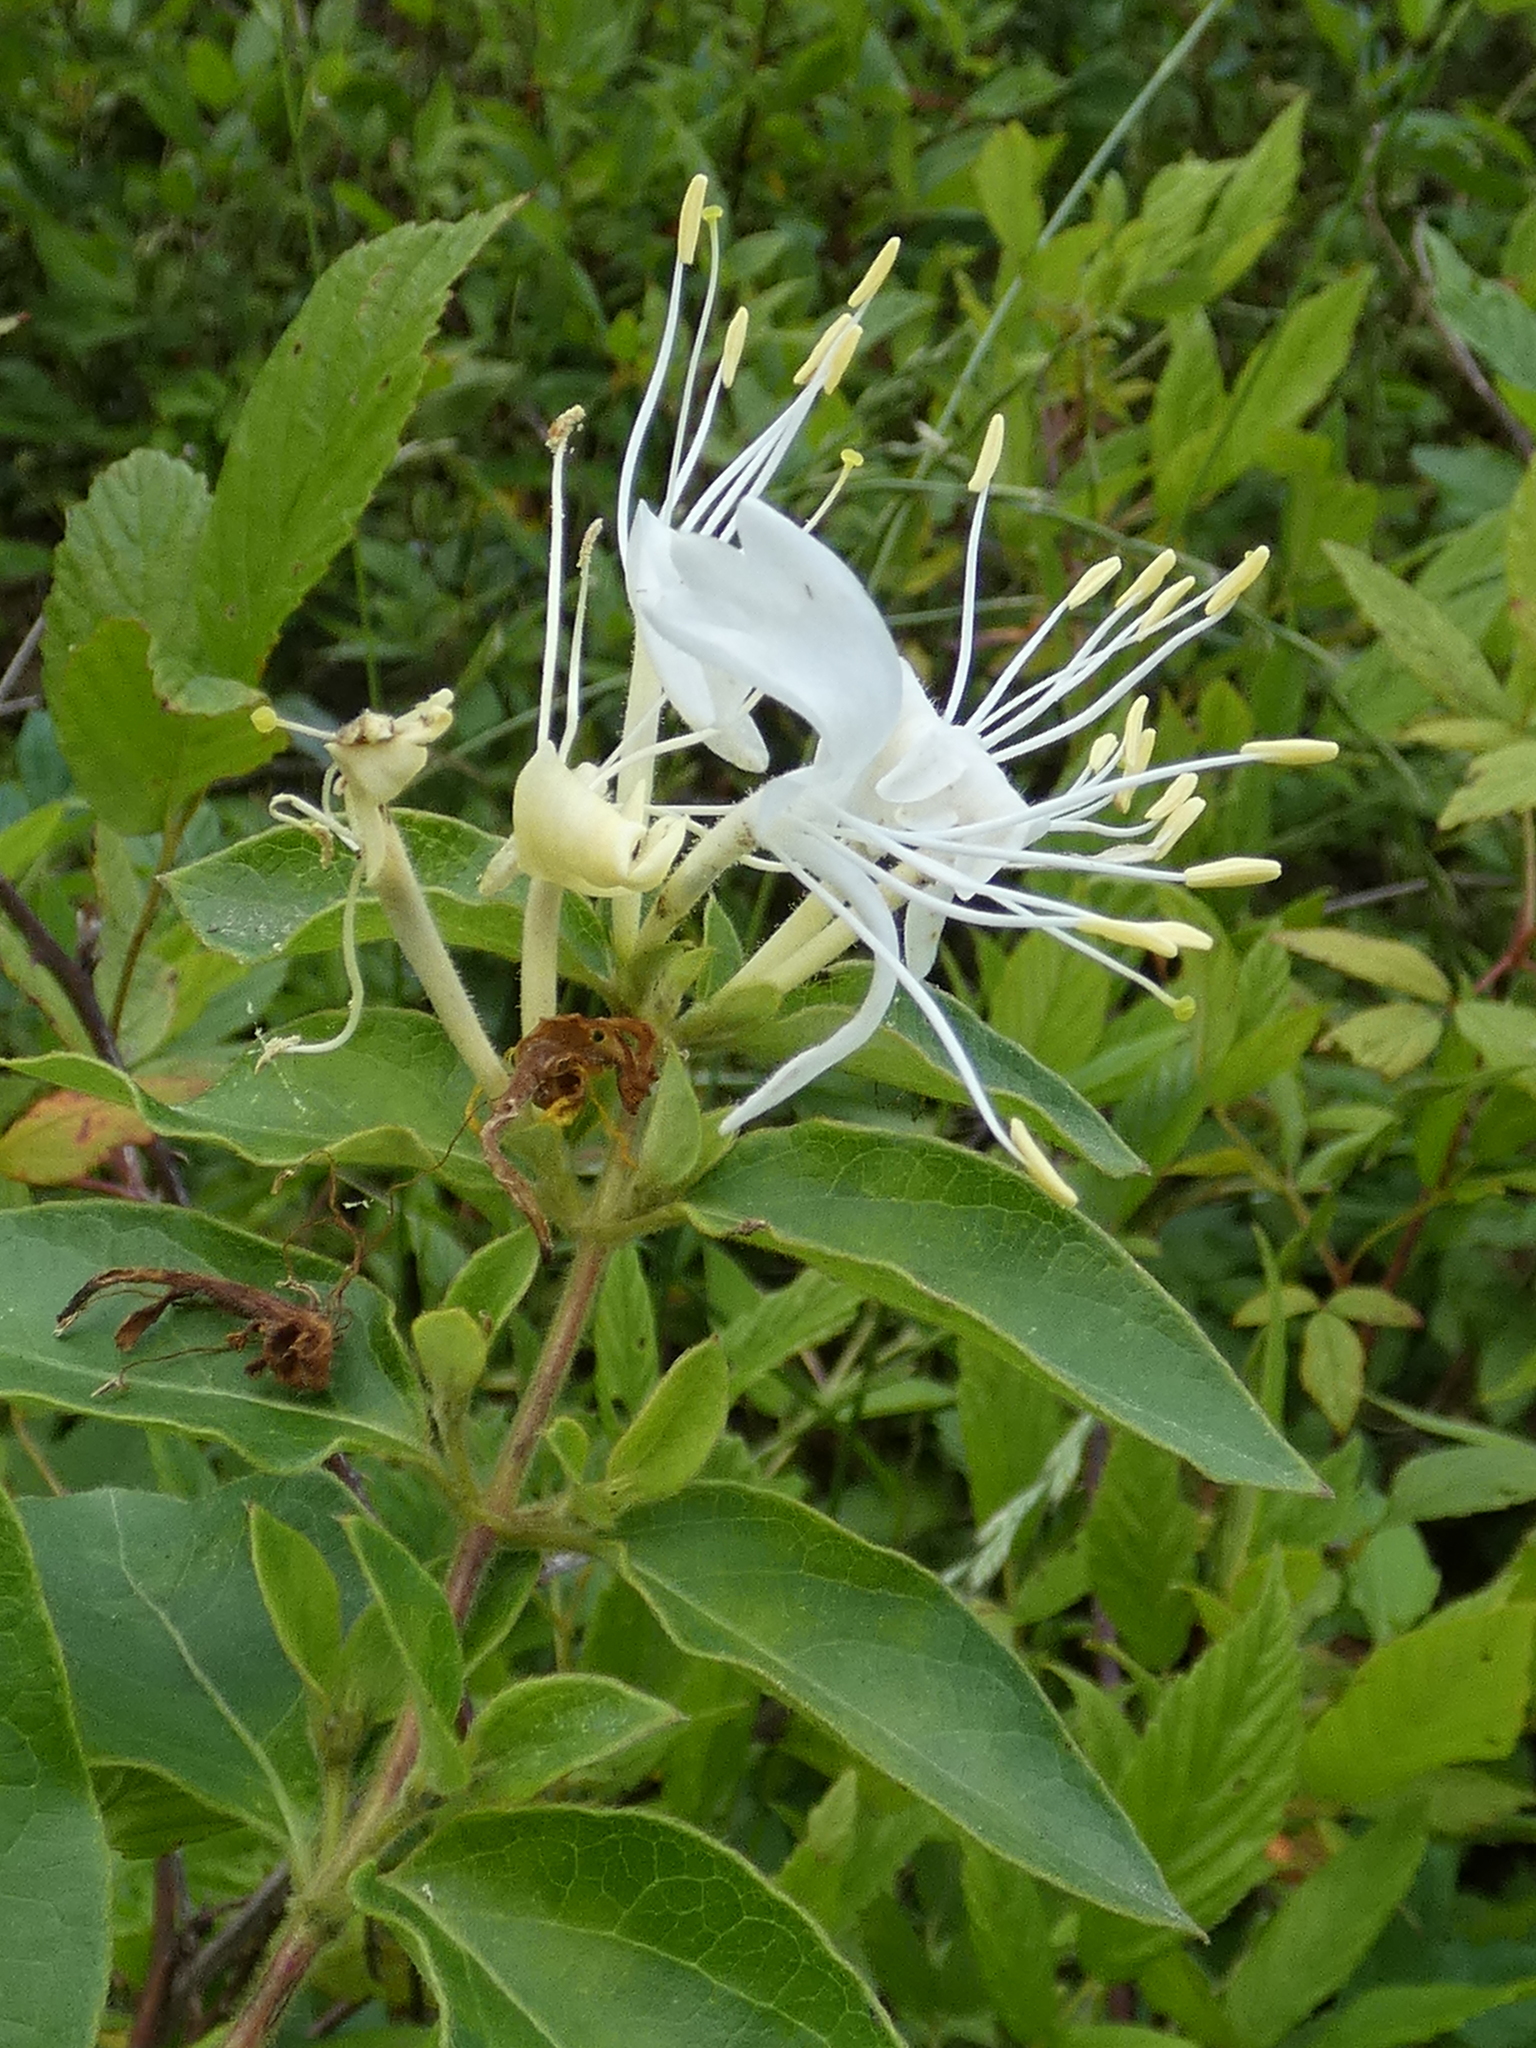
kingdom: Plantae
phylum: Tracheophyta
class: Magnoliopsida
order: Dipsacales
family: Caprifoliaceae
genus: Lonicera
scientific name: Lonicera japonica
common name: Japanese honeysuckle
